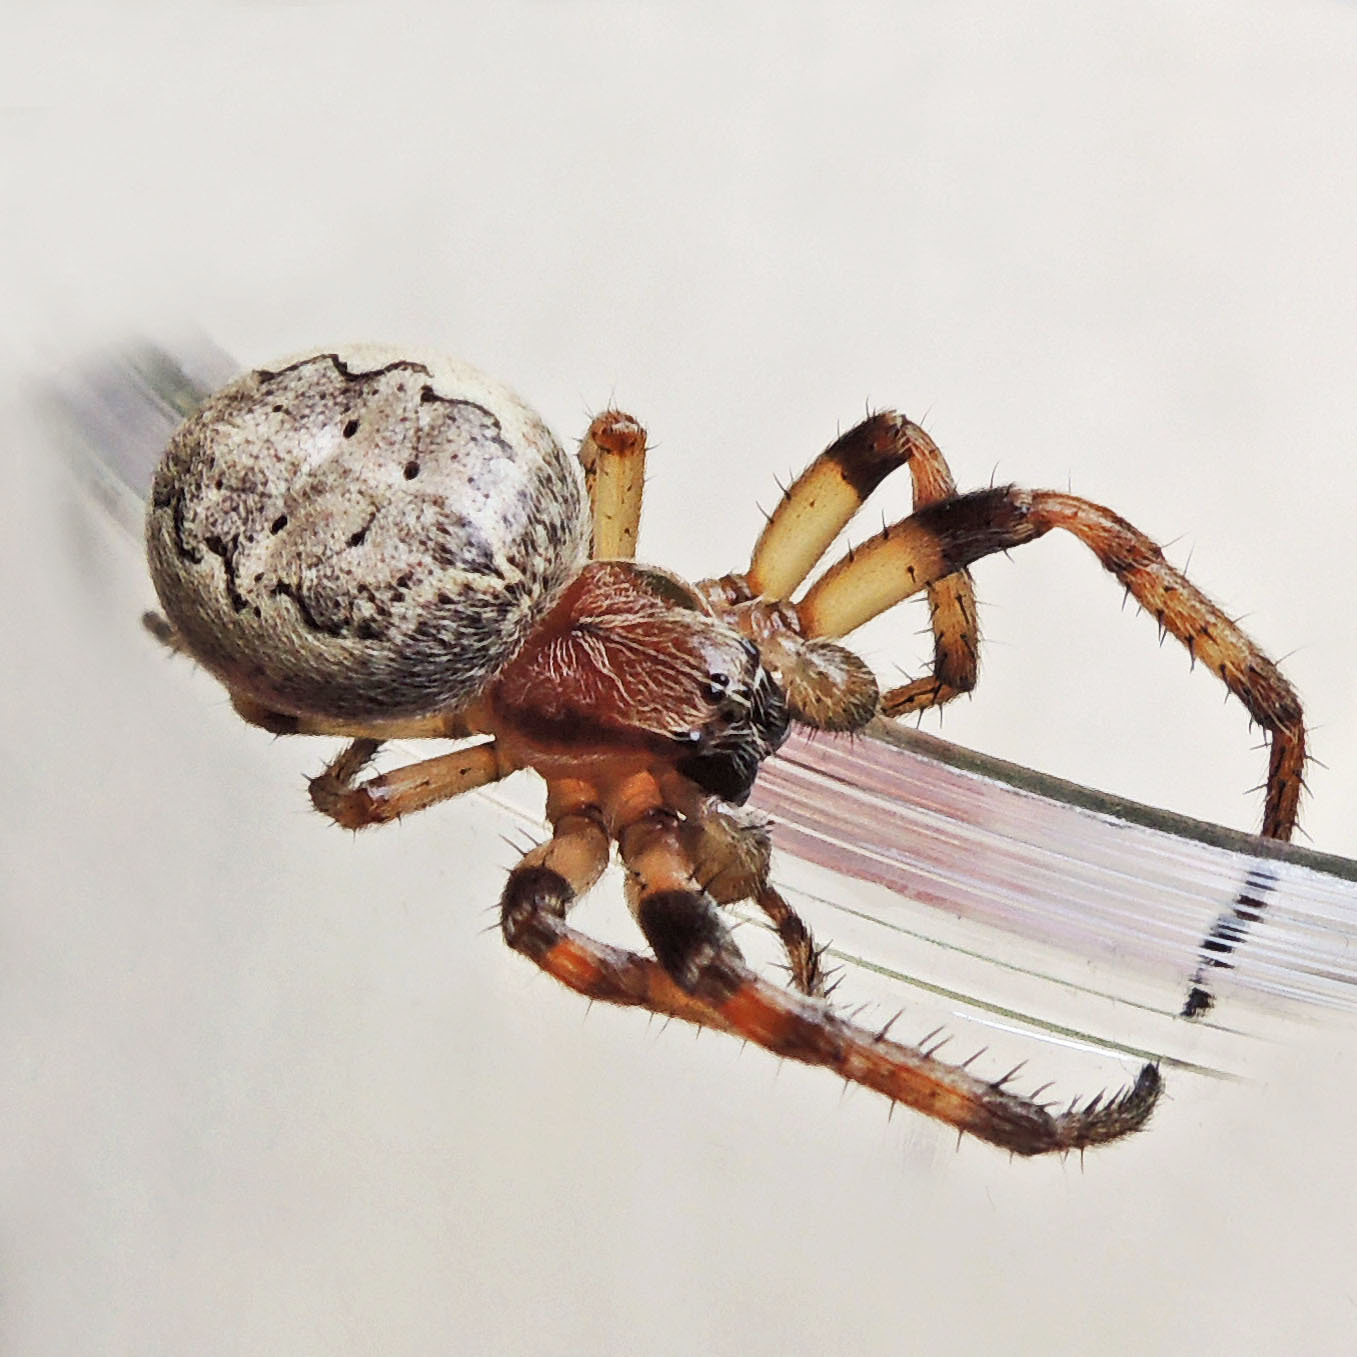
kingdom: Animalia
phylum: Arthropoda
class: Arachnida
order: Araneae
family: Araneidae
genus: Larinioides
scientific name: Larinioides cornutus
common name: Furrow orbweaver
